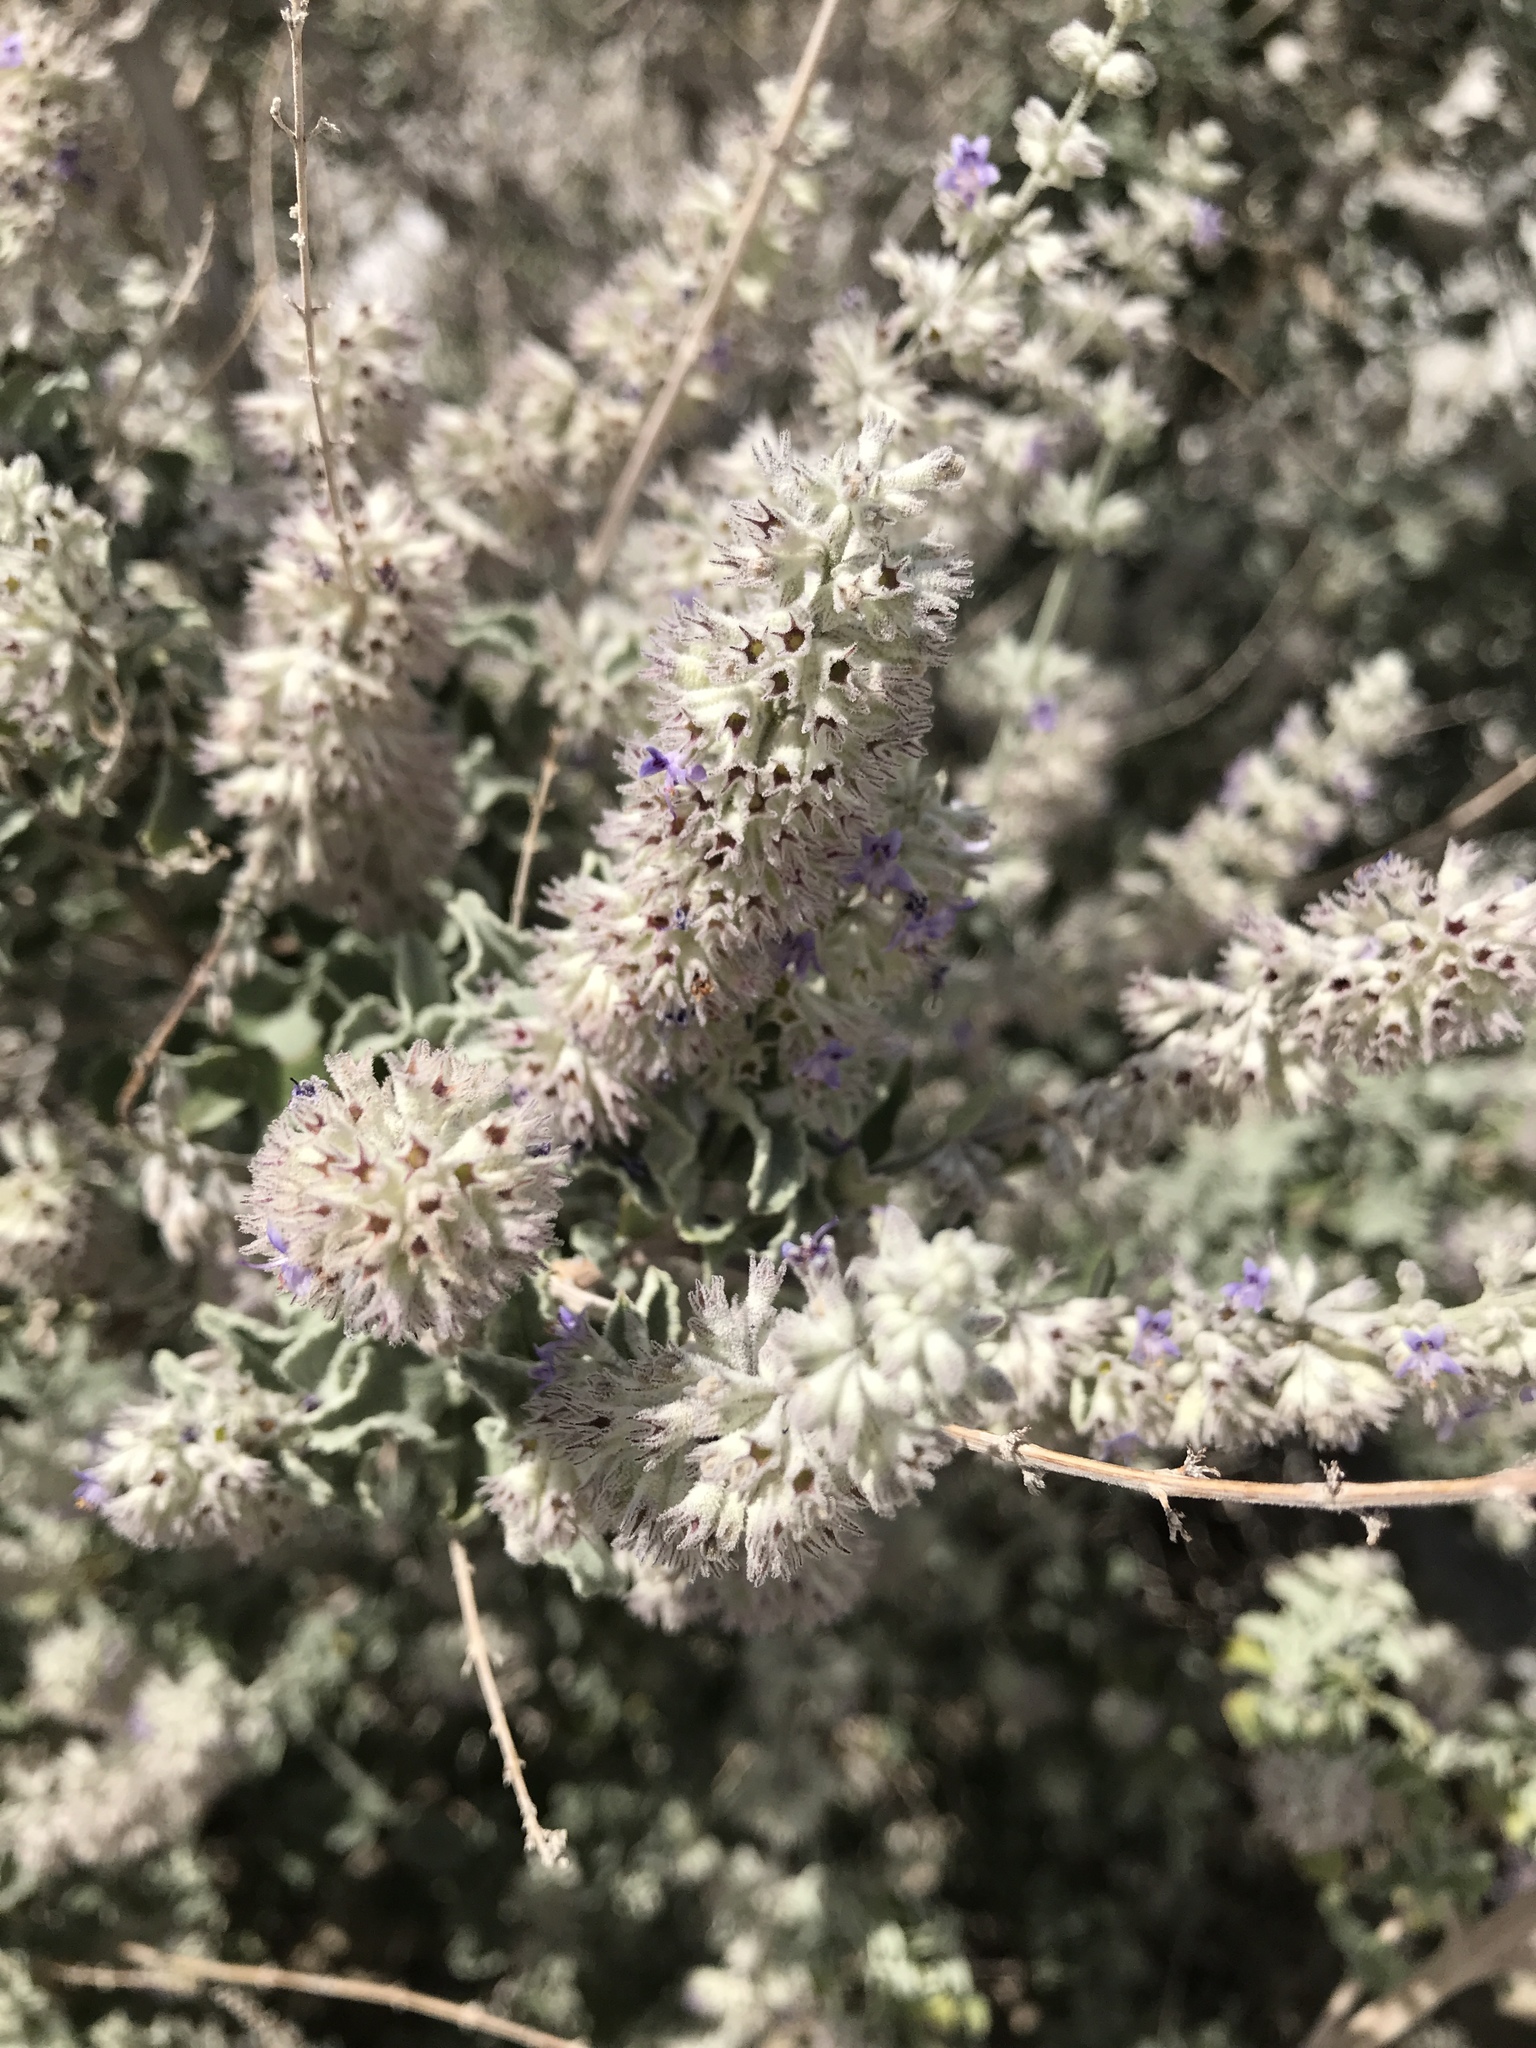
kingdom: Plantae
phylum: Tracheophyta
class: Magnoliopsida
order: Lamiales
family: Lamiaceae
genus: Condea
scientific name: Condea emoryi
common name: Chia
